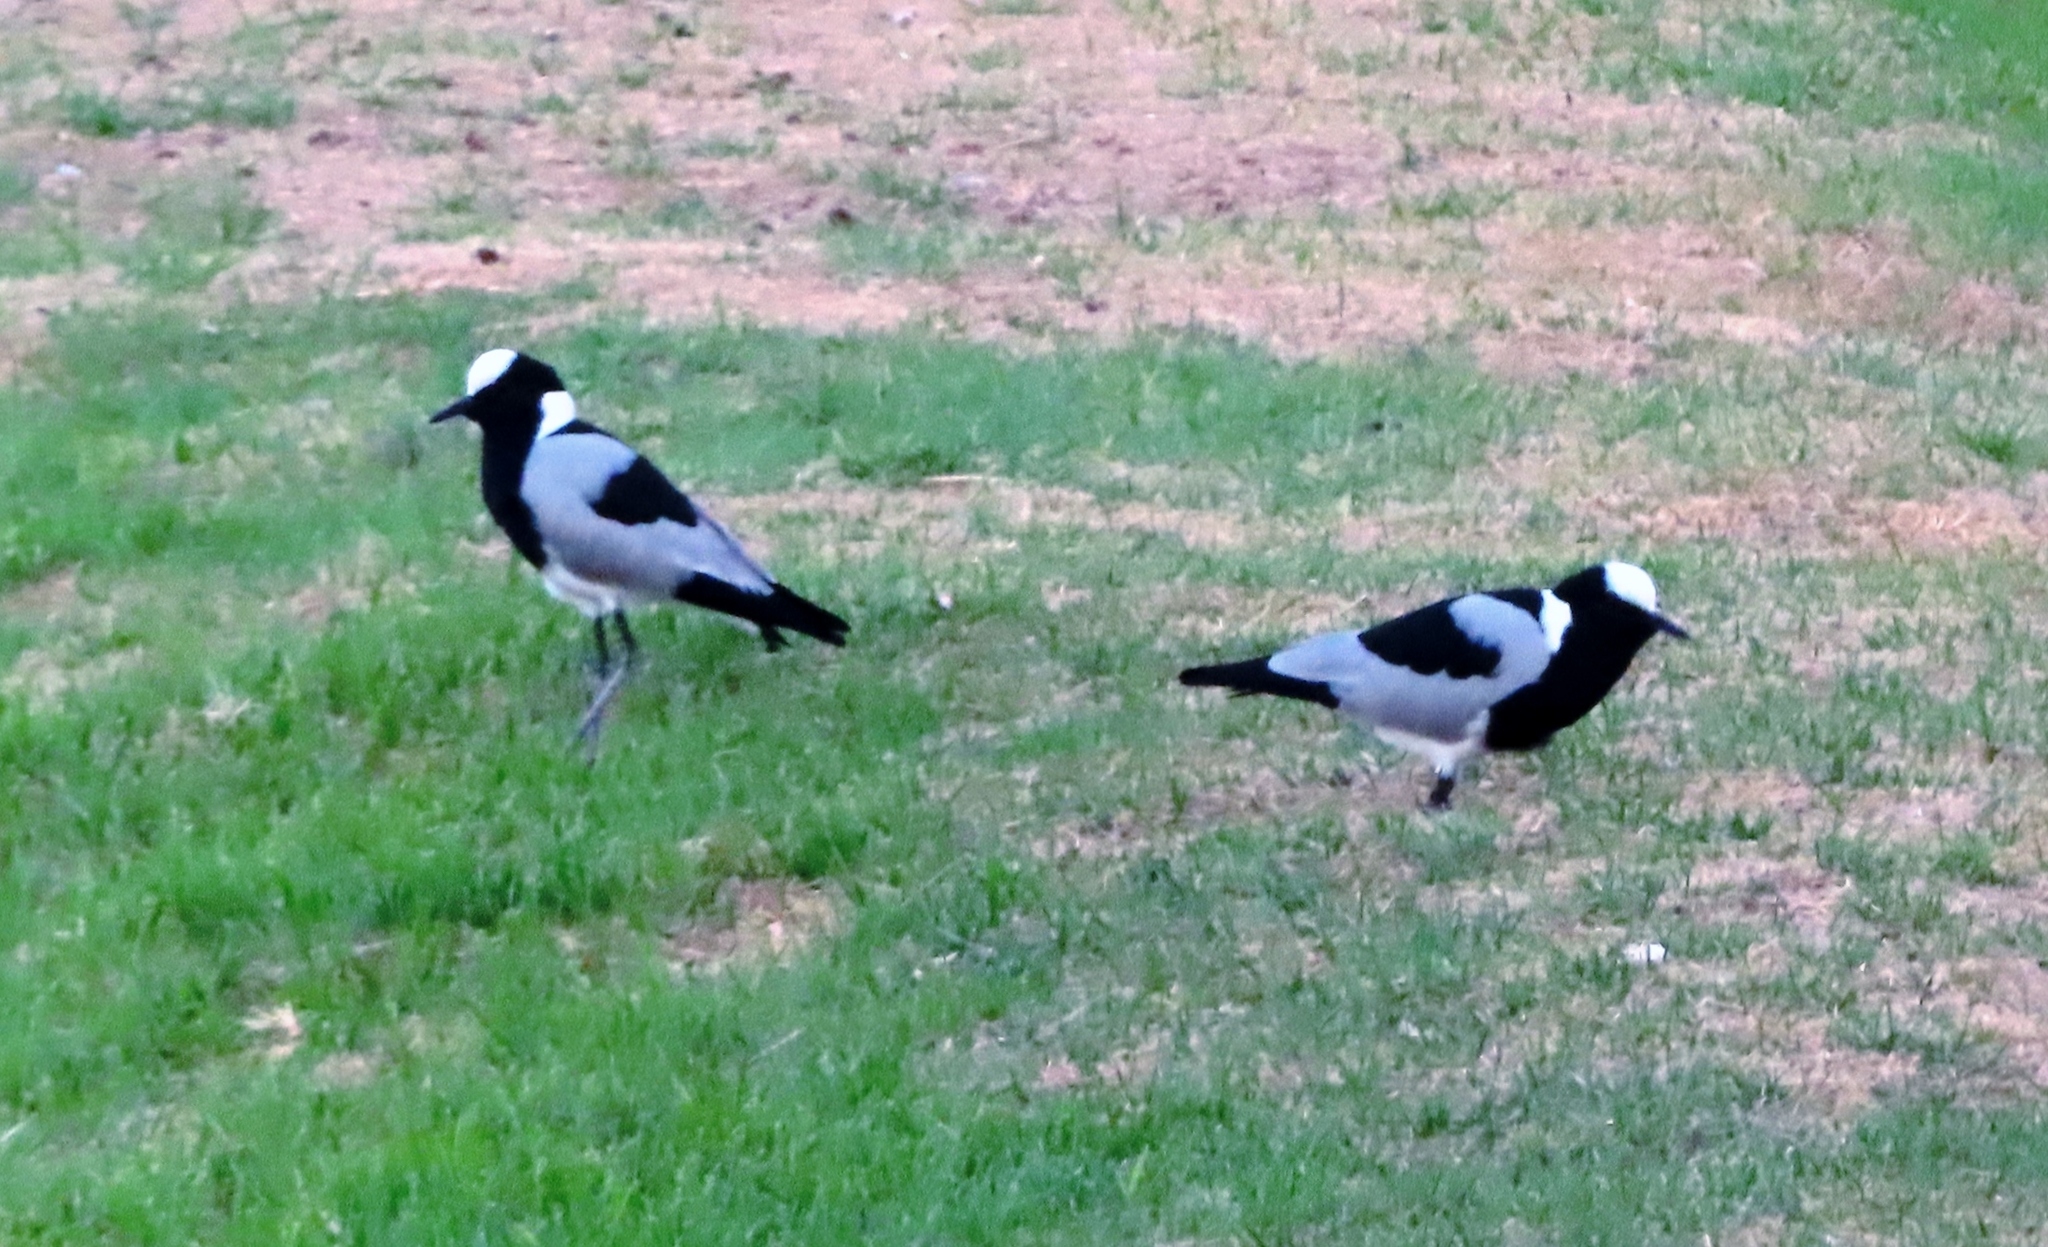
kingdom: Animalia
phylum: Chordata
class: Aves
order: Charadriiformes
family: Charadriidae
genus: Vanellus
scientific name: Vanellus armatus
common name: Blacksmith lapwing
